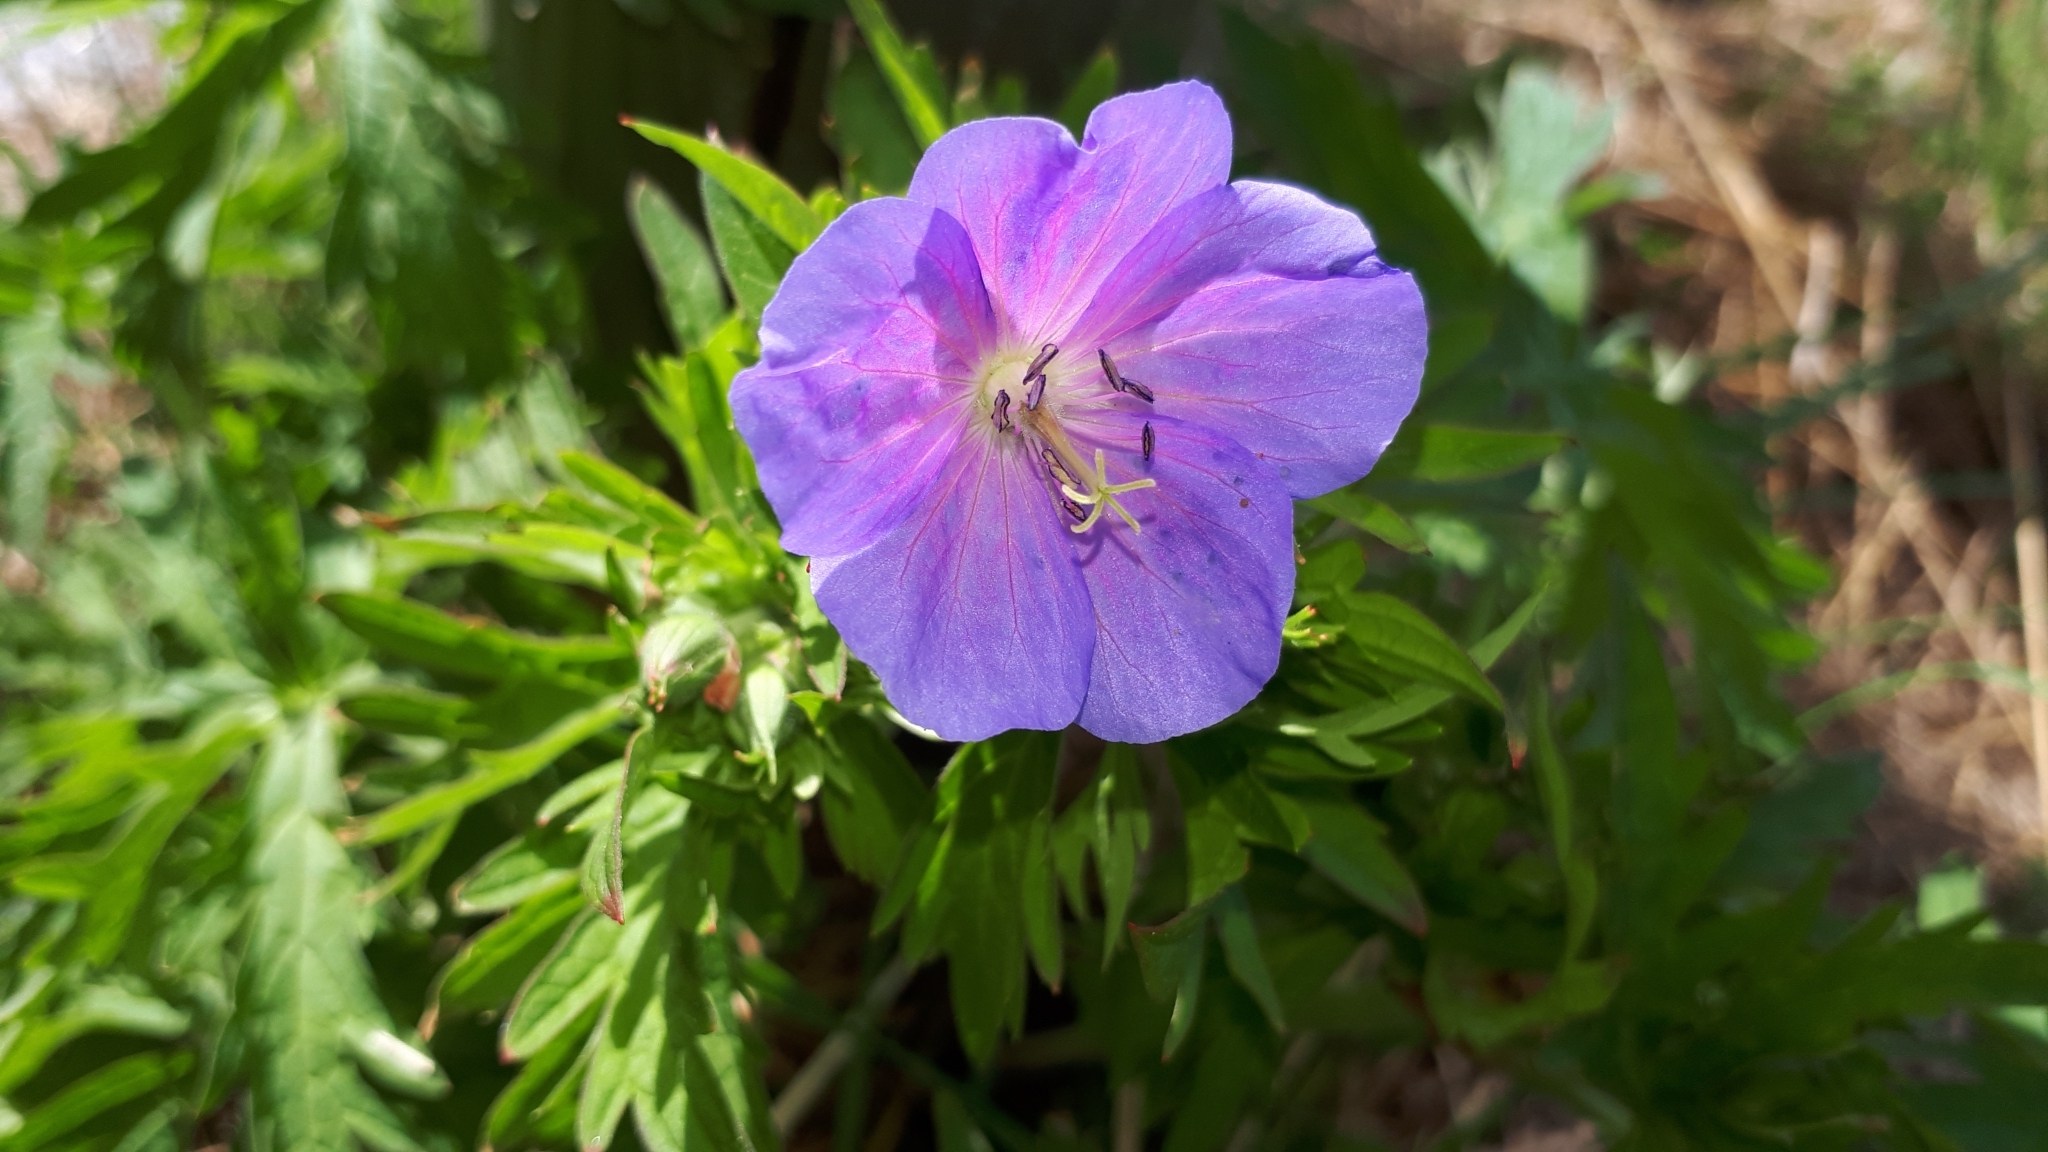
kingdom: Plantae
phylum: Tracheophyta
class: Magnoliopsida
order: Geraniales
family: Geraniaceae
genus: Geranium
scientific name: Geranium pratense
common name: Meadow crane's-bill
